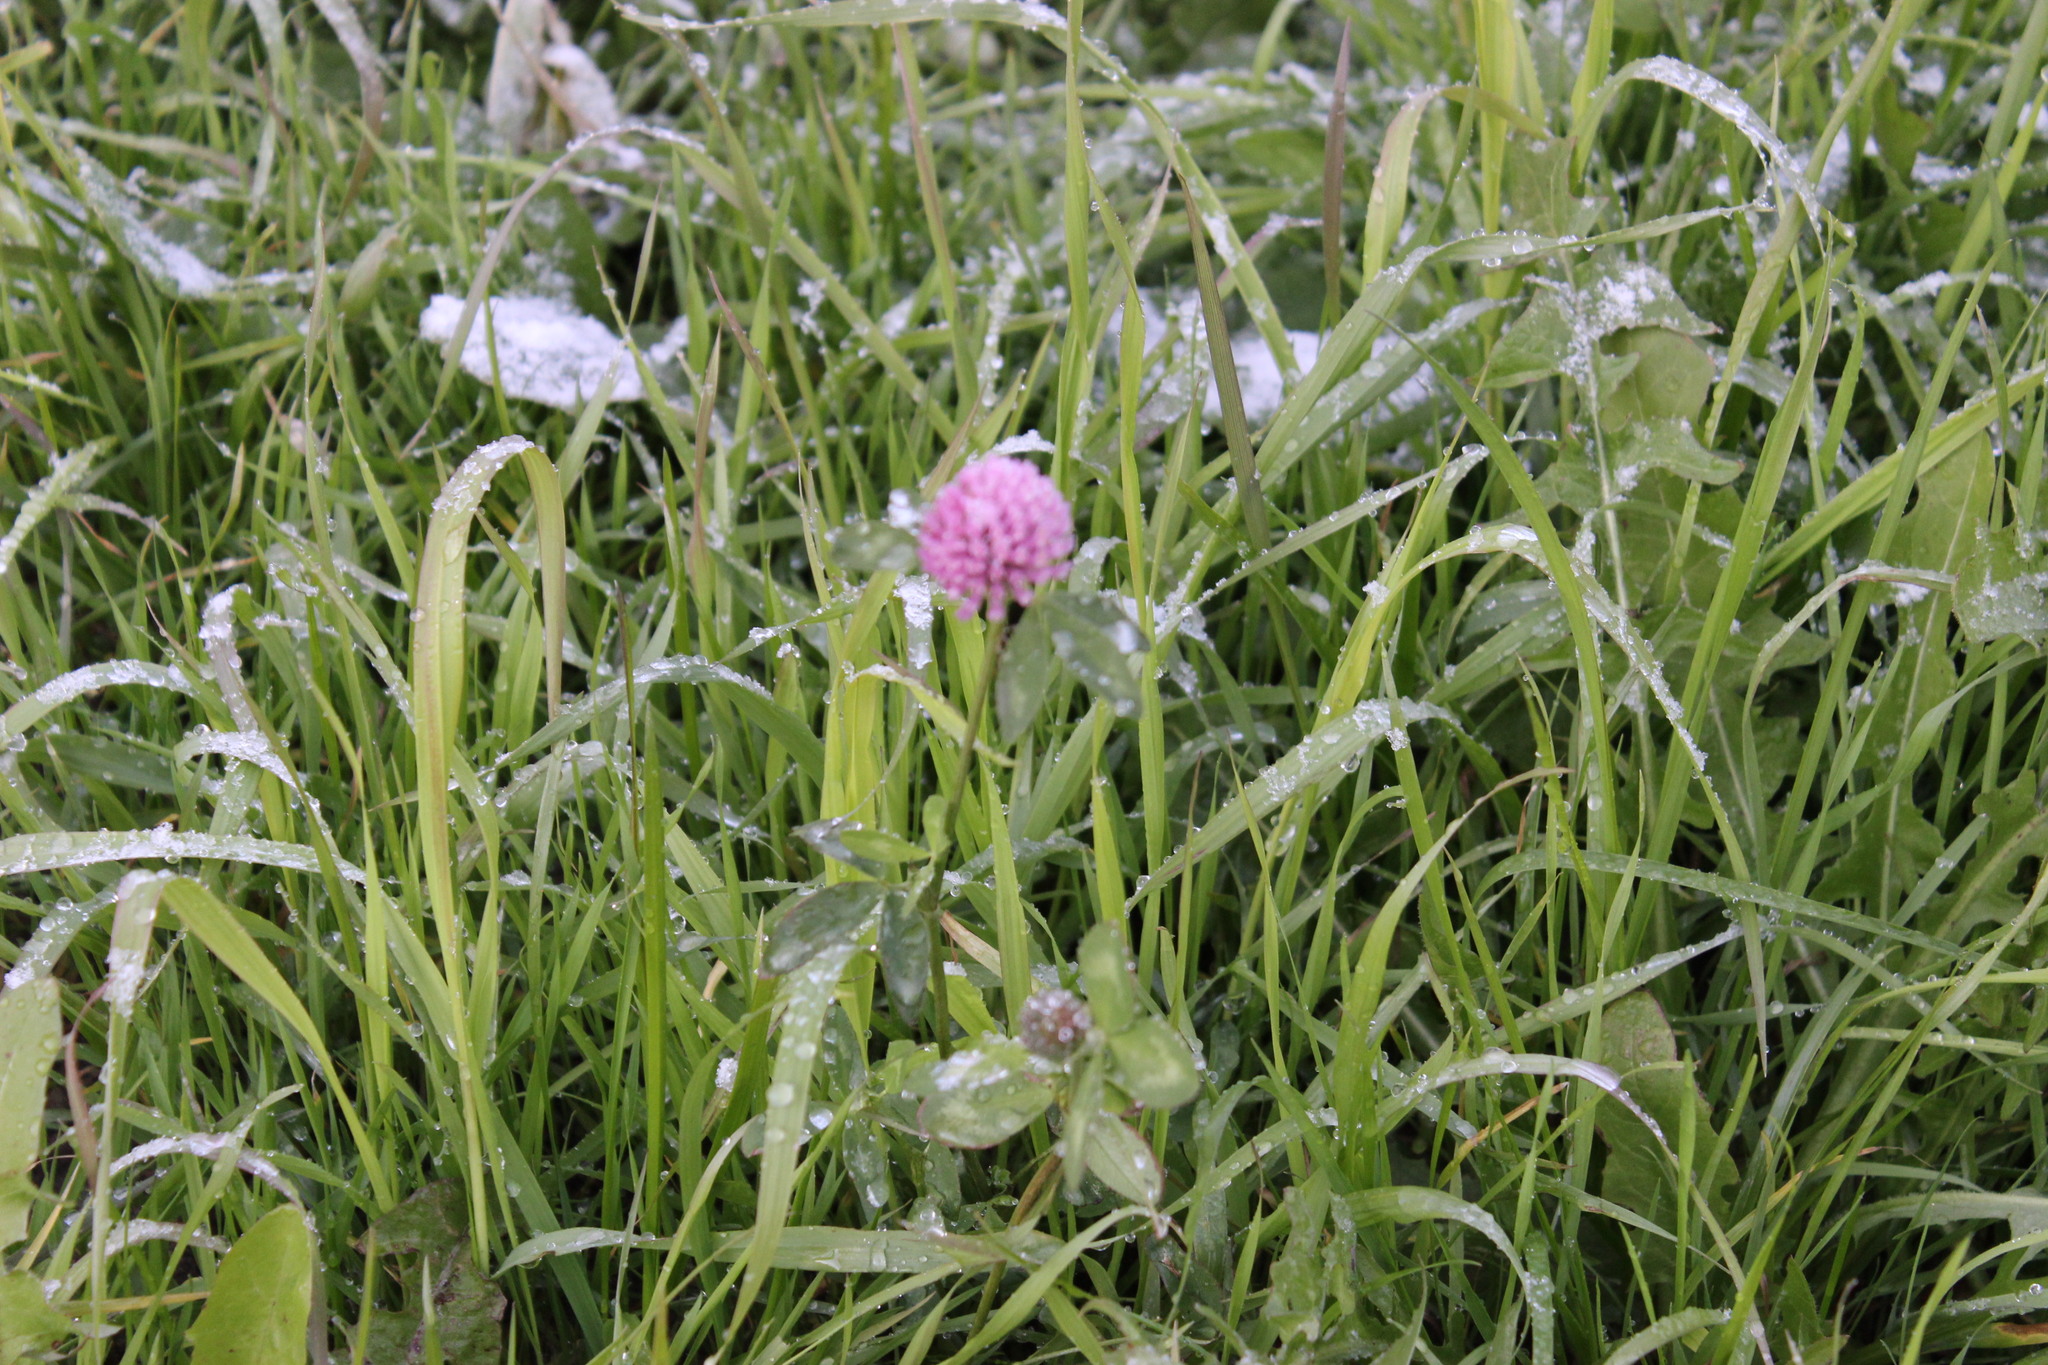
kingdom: Plantae
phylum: Tracheophyta
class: Magnoliopsida
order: Fabales
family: Fabaceae
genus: Trifolium
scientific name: Trifolium pratense
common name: Red clover
